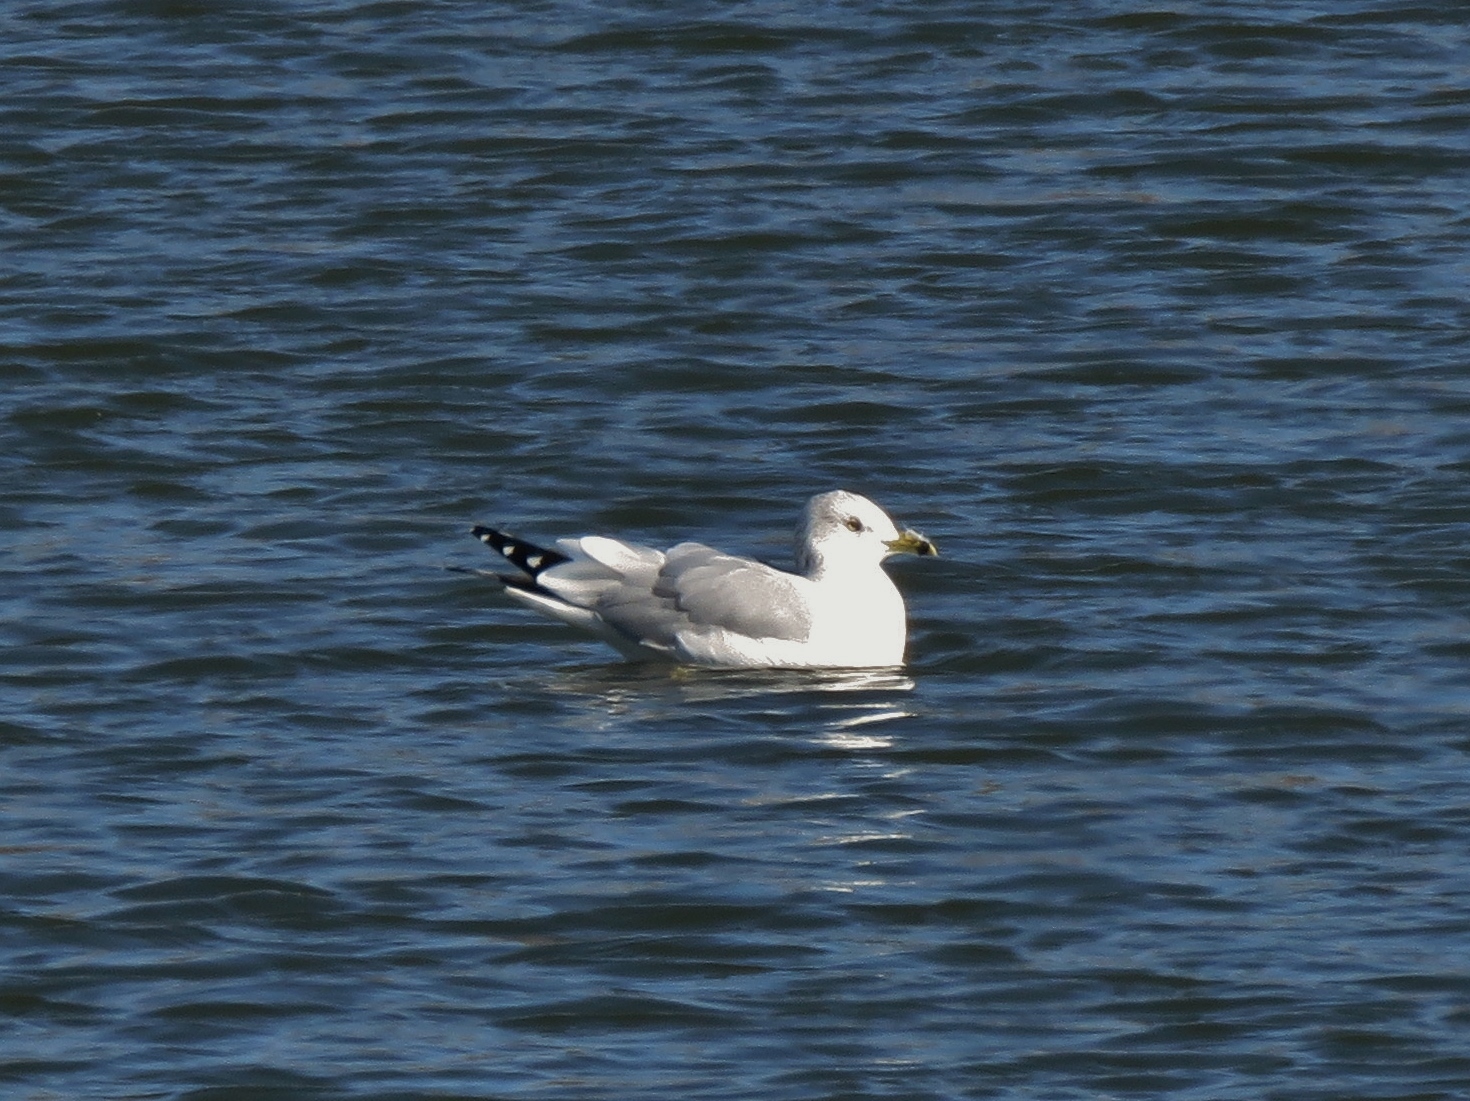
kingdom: Animalia
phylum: Chordata
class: Aves
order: Charadriiformes
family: Laridae
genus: Larus
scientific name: Larus delawarensis
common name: Ring-billed gull
